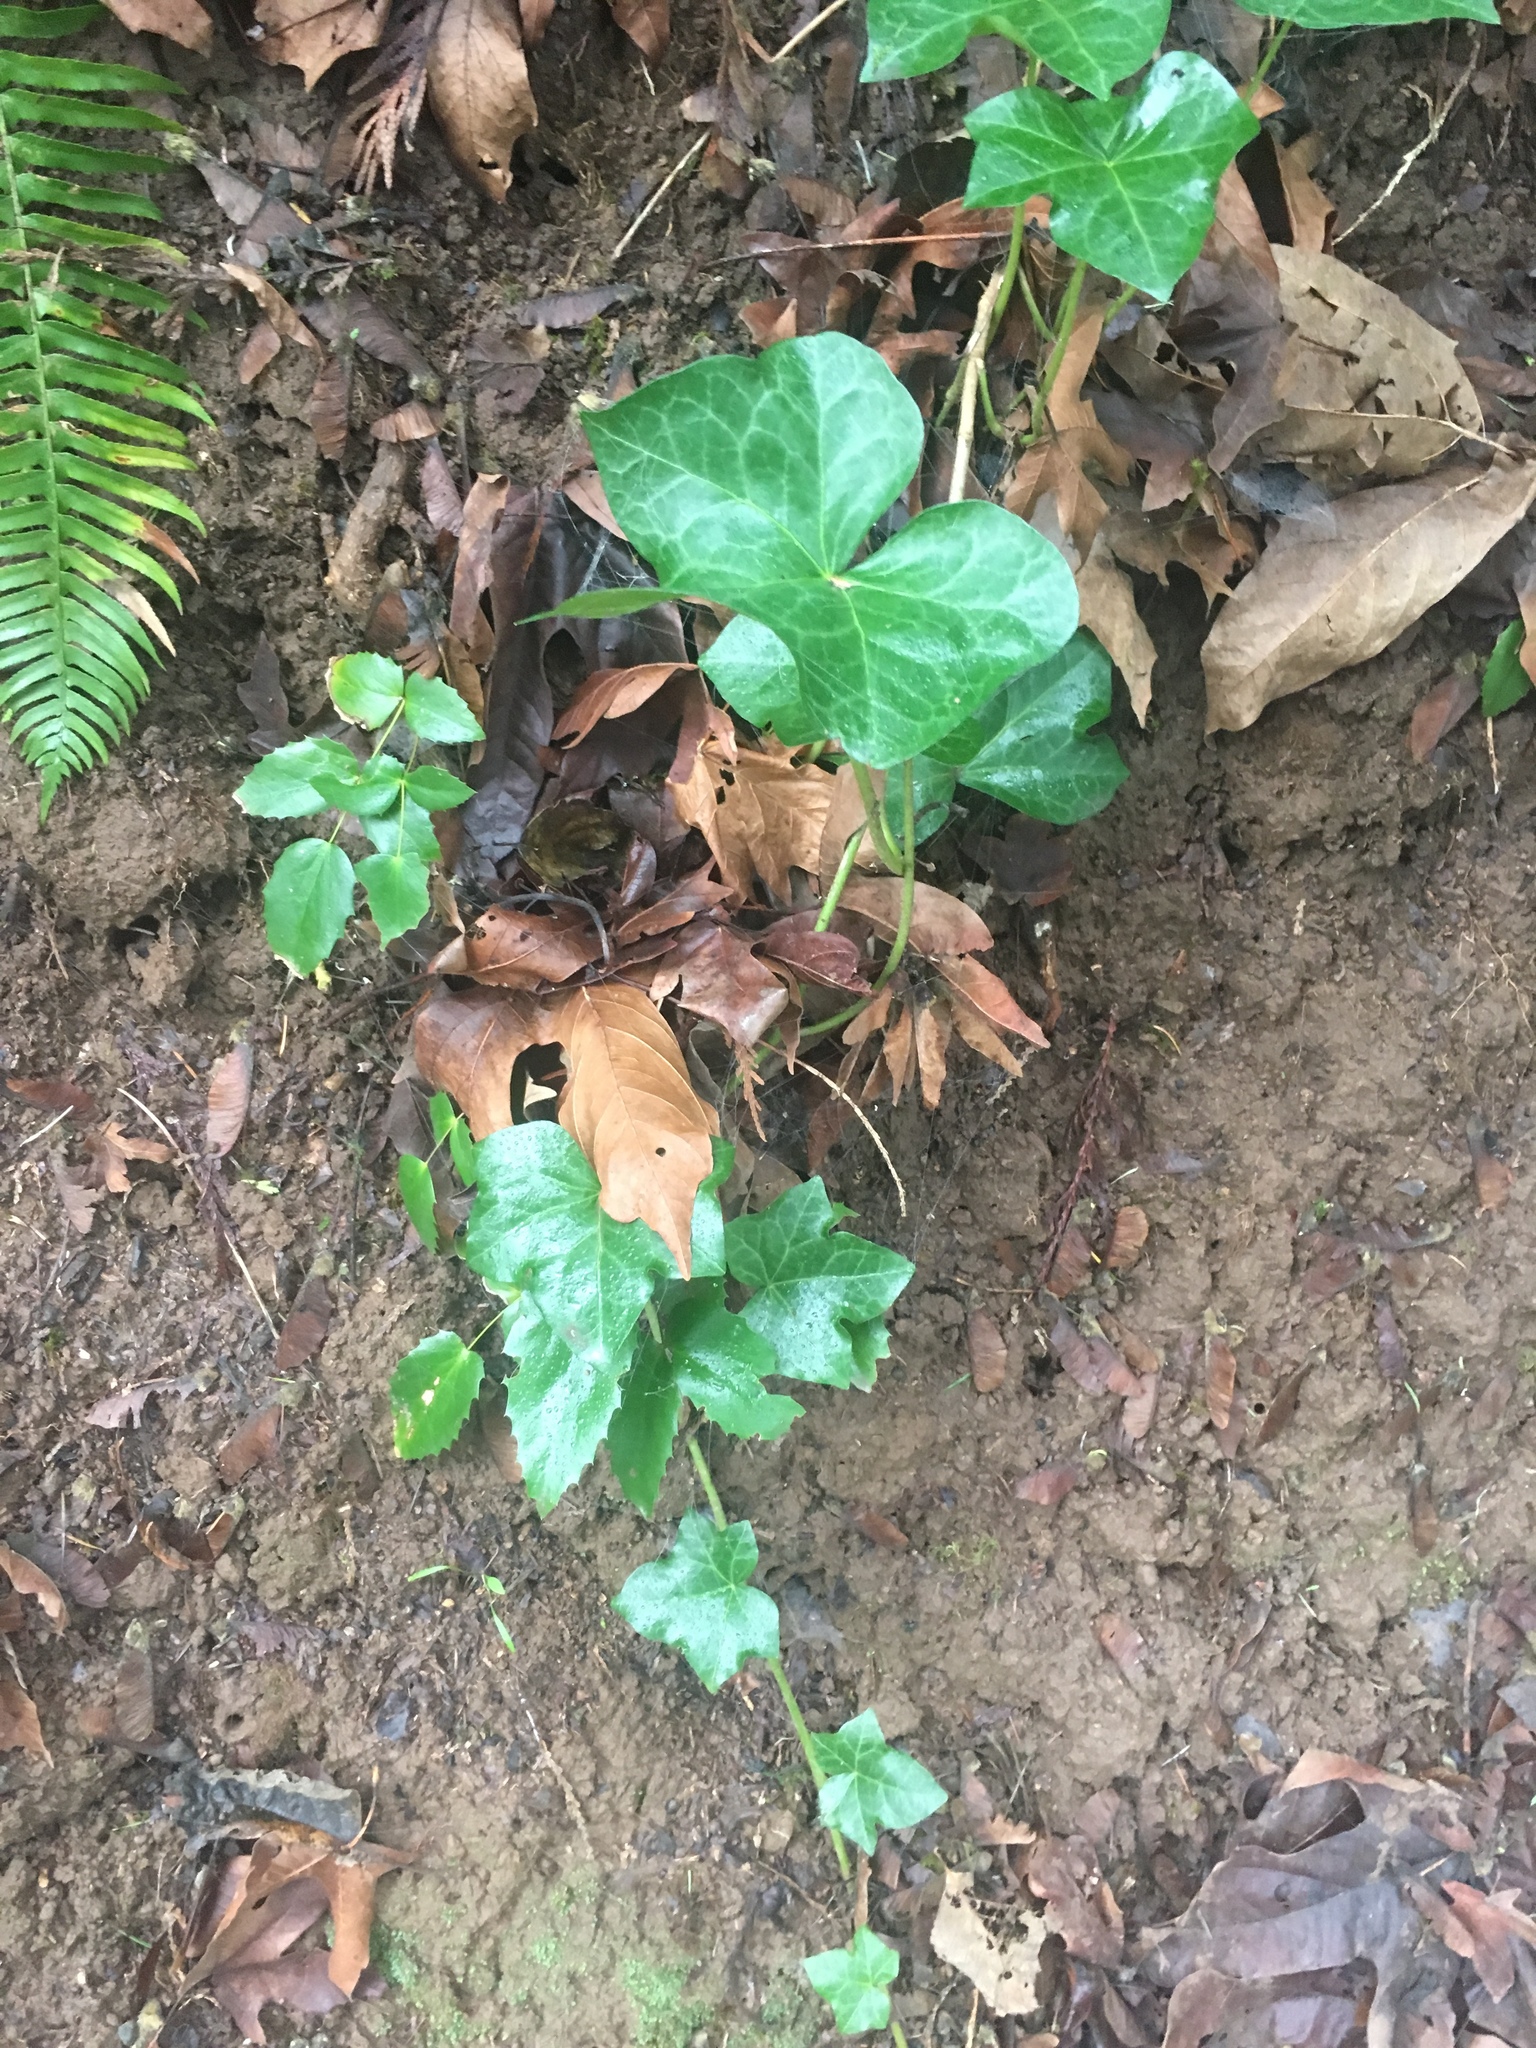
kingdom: Plantae
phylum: Tracheophyta
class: Magnoliopsida
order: Apiales
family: Araliaceae
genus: Hedera
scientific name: Hedera helix
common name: Ivy
